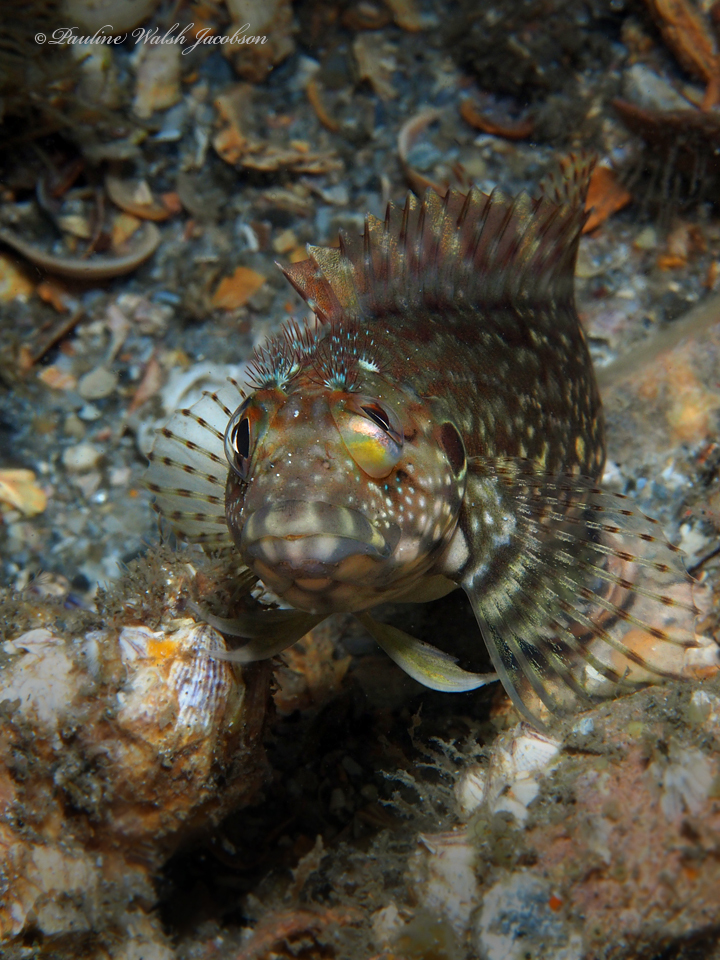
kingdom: Animalia
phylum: Chordata
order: Perciformes
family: Labrisomidae
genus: Labrisomus
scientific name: Labrisomus conditus
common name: Masquerader hairy blenny
